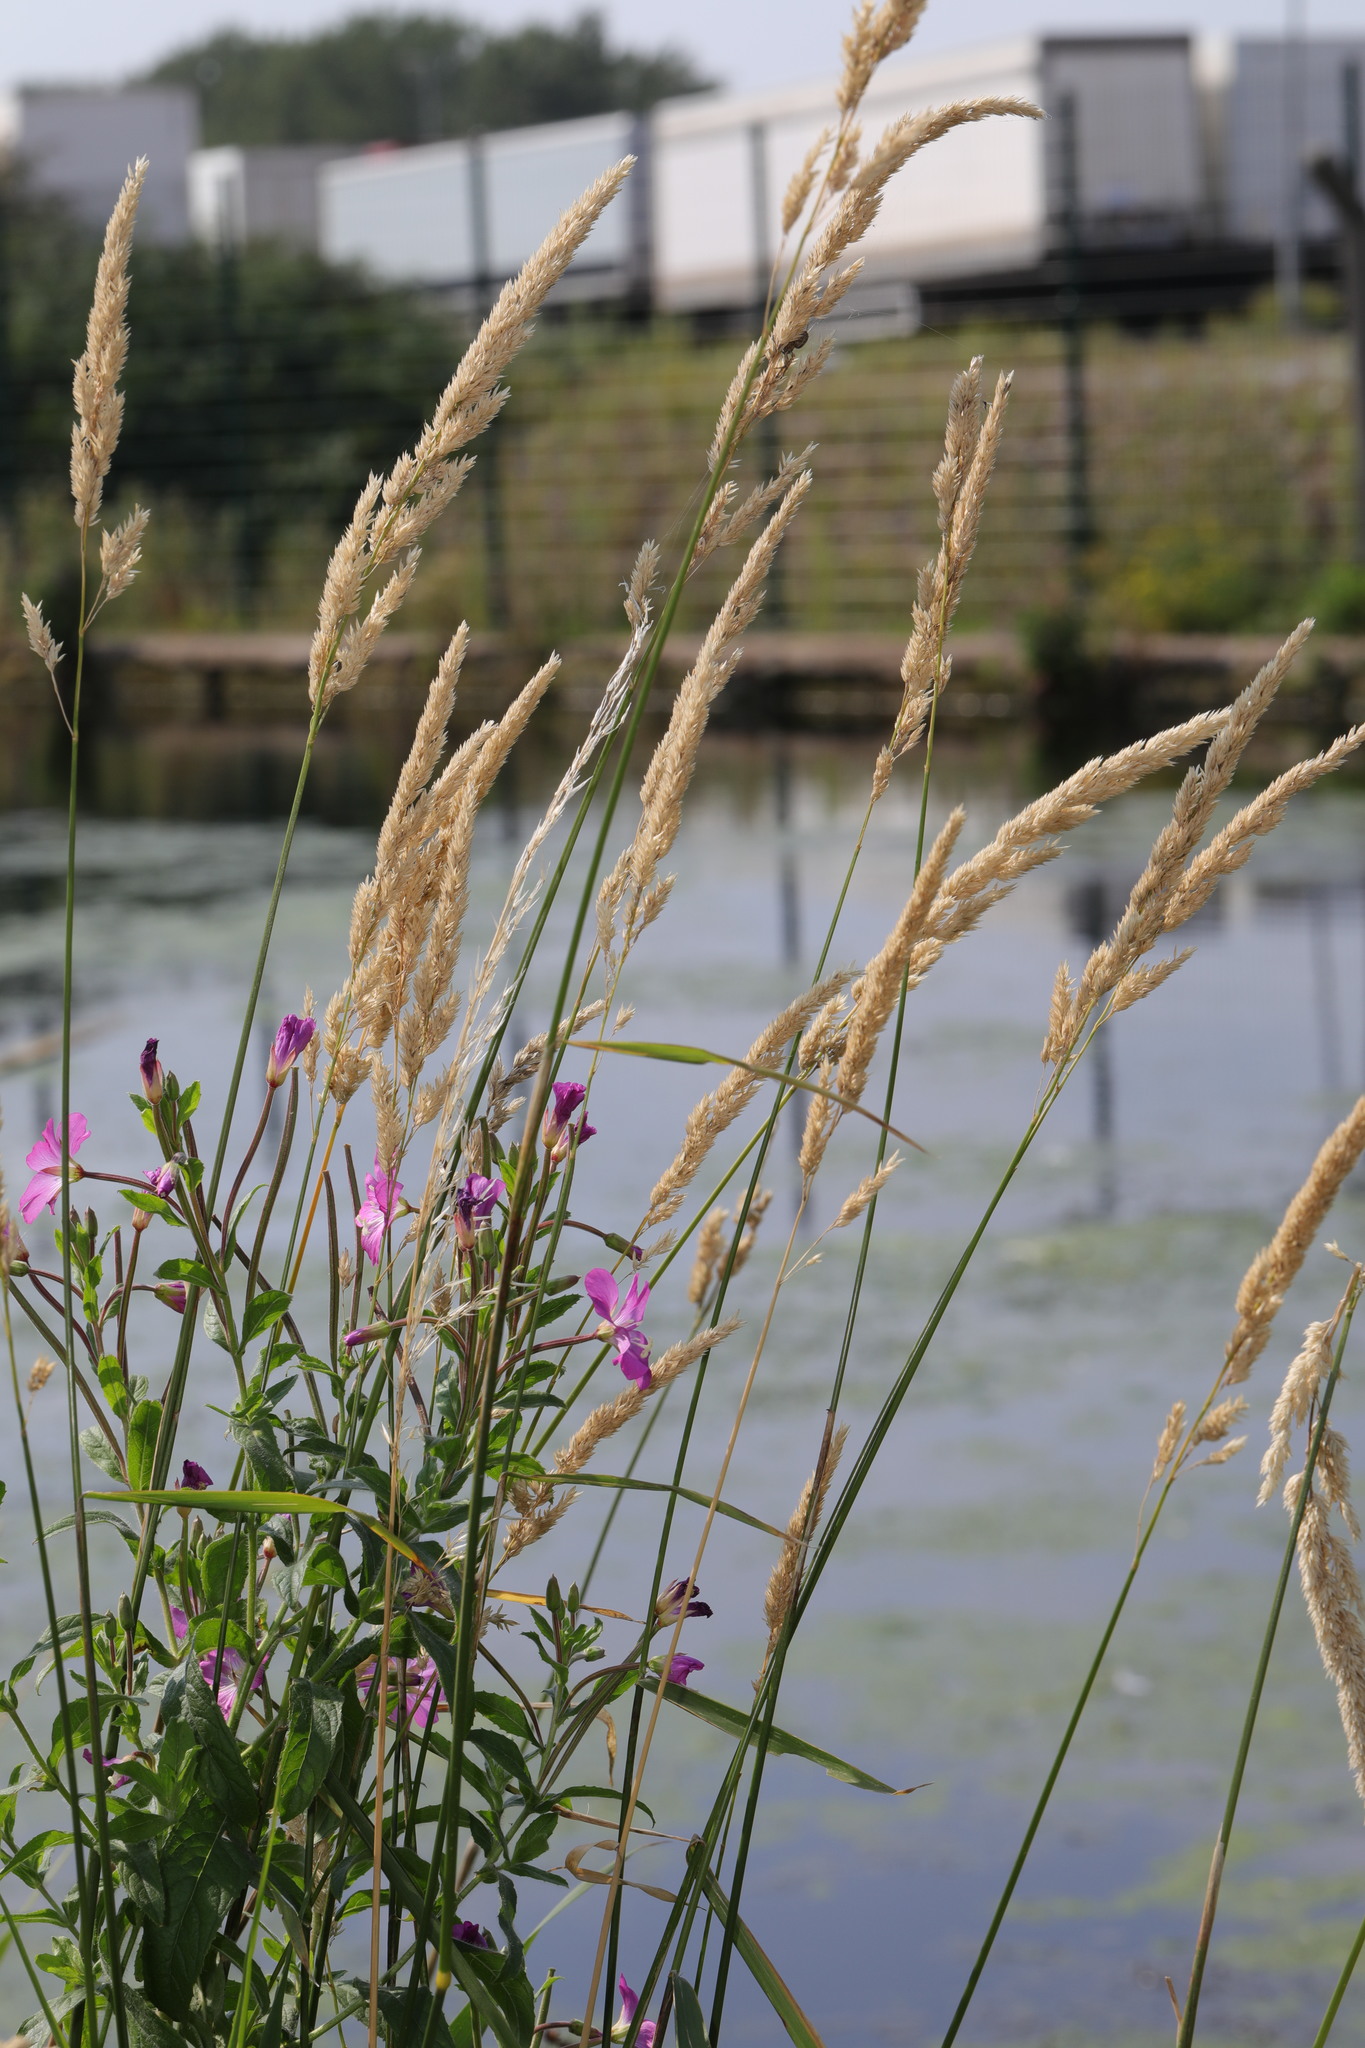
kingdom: Plantae
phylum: Tracheophyta
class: Liliopsida
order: Poales
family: Poaceae
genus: Phalaris
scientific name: Phalaris arundinacea
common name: Reed canary-grass
